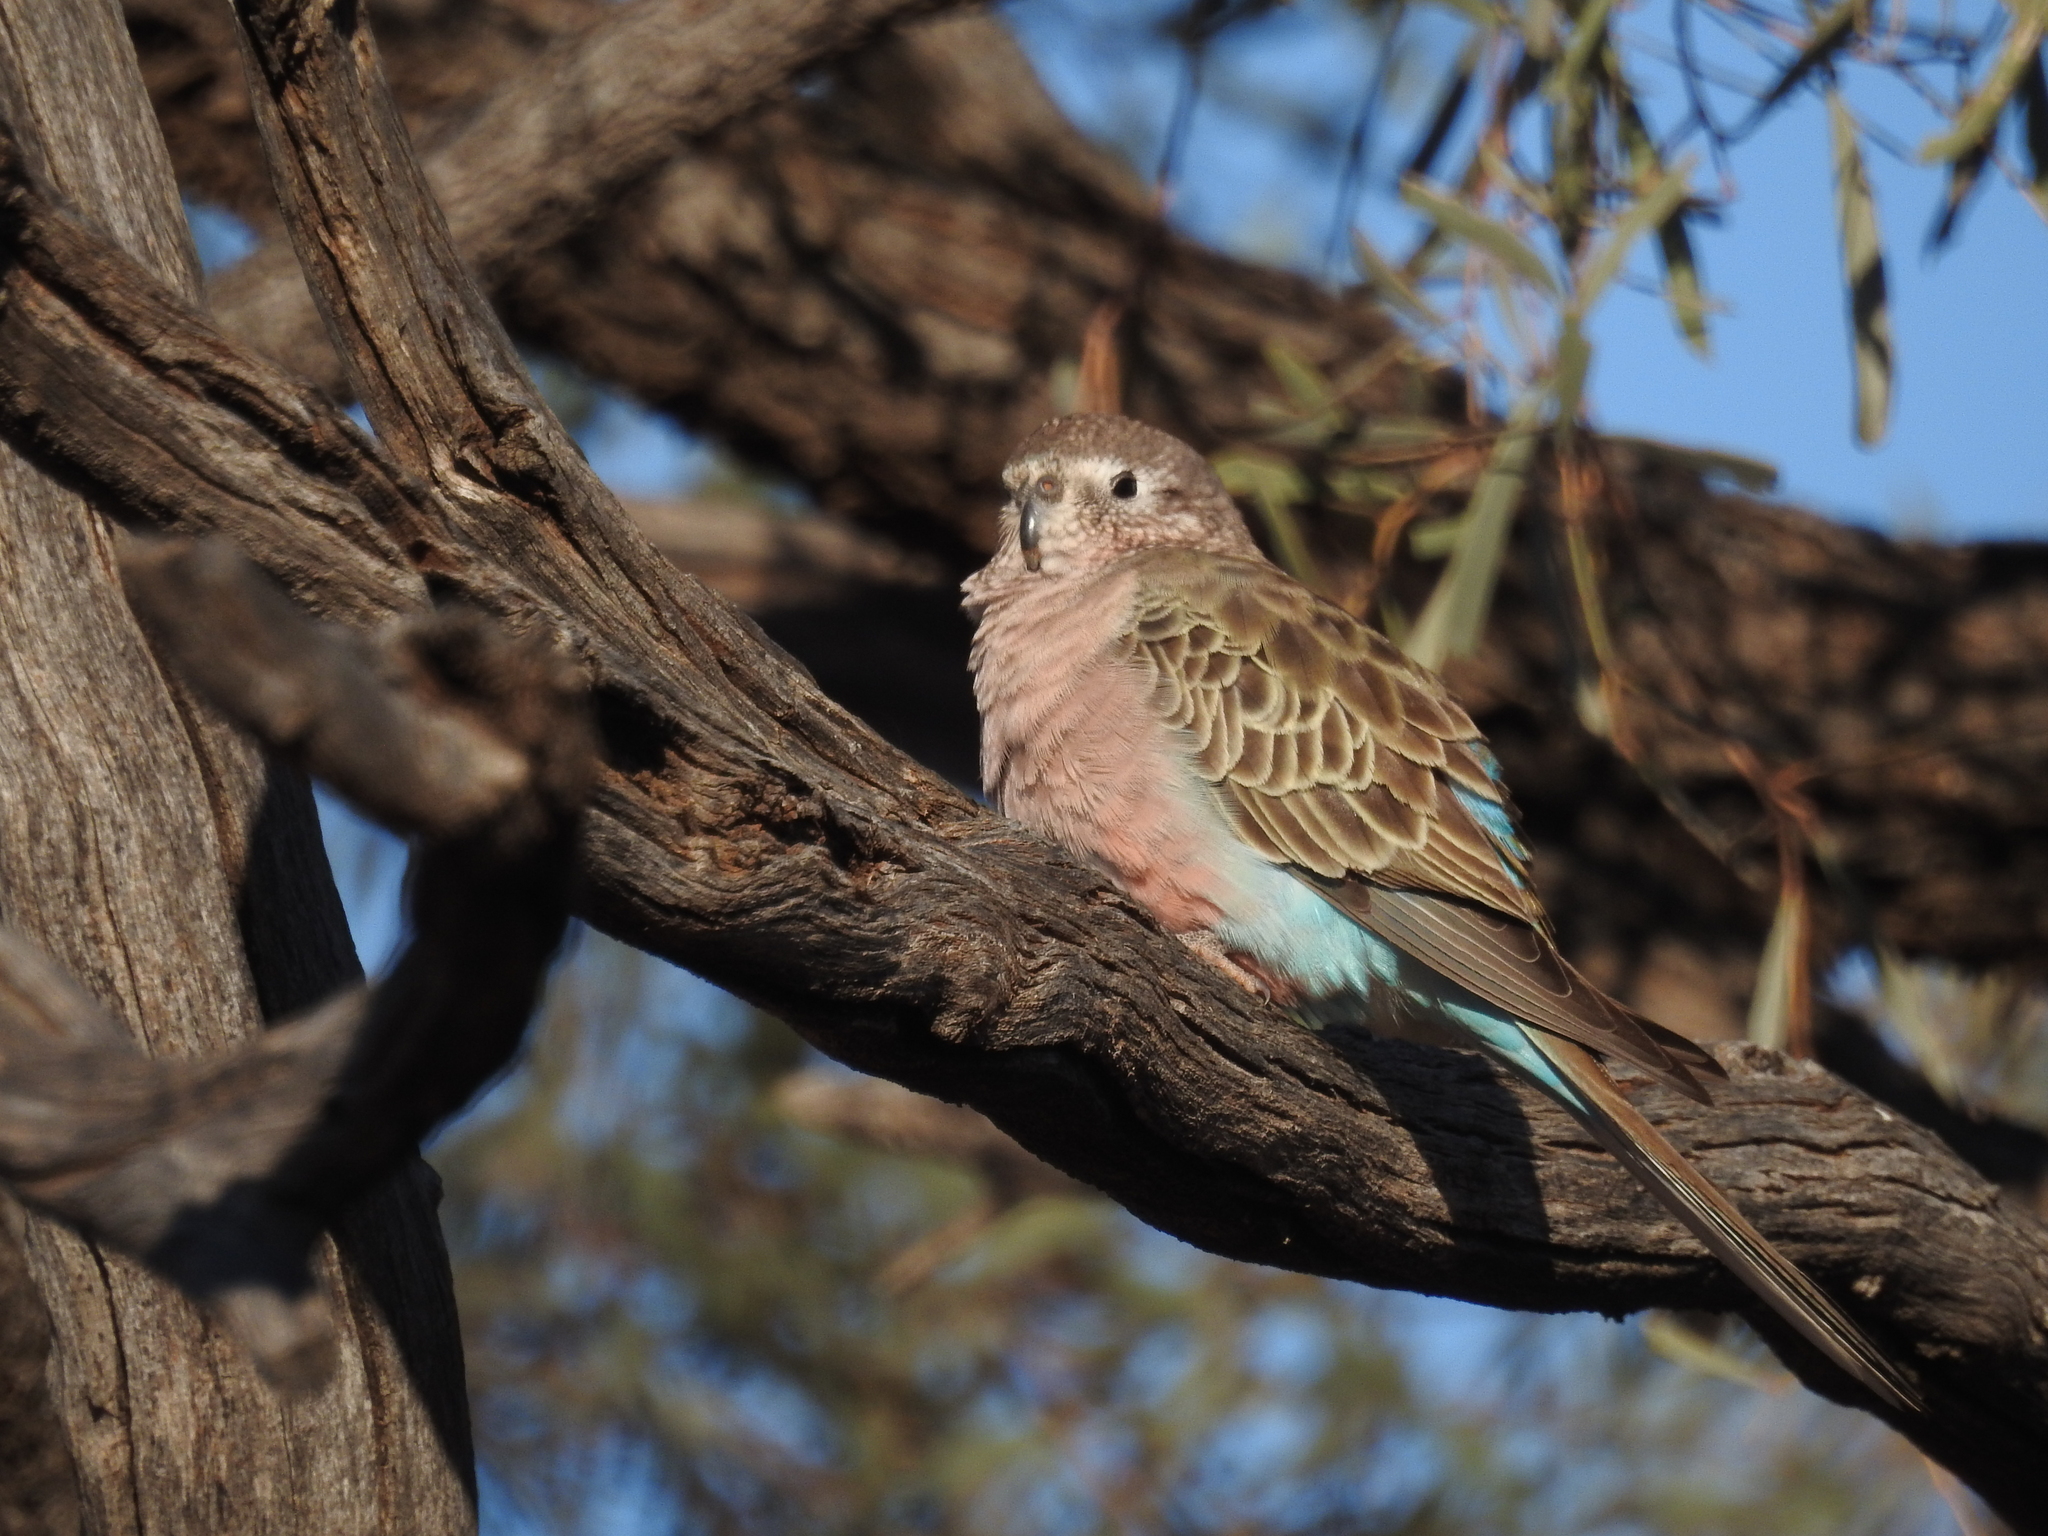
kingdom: Animalia
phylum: Chordata
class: Aves
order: Psittaciformes
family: Psittacidae
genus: Neopsephotus
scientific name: Neopsephotus bourkii
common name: Bourke's parrot
